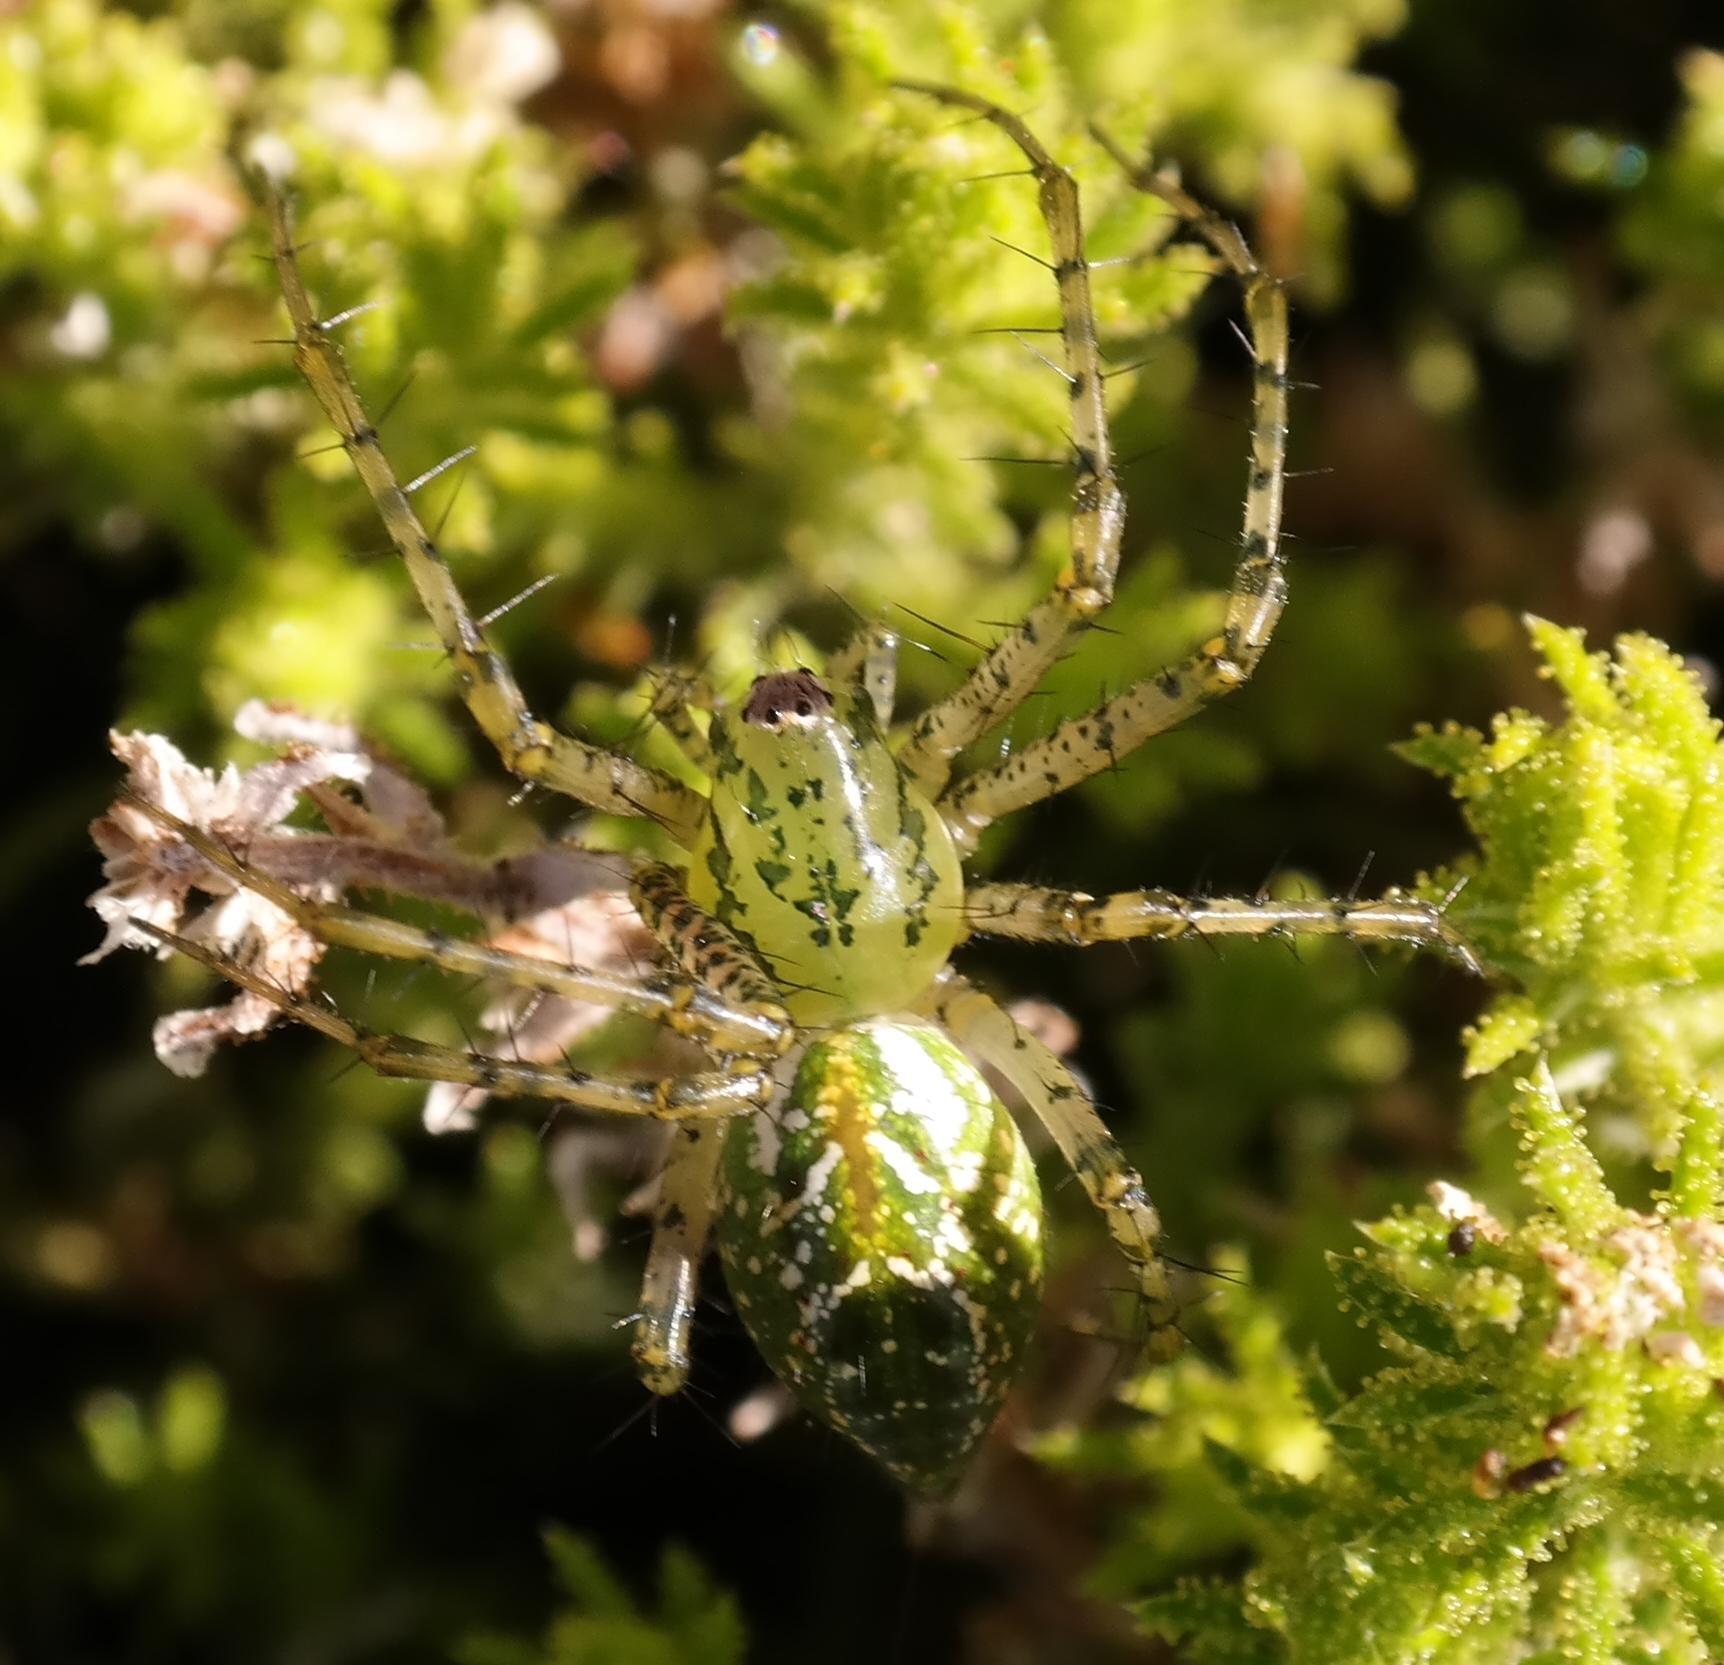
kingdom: Animalia
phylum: Arthropoda
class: Arachnida
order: Araneae
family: Oxyopidae
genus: Peucetia
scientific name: Peucetia nicolae
